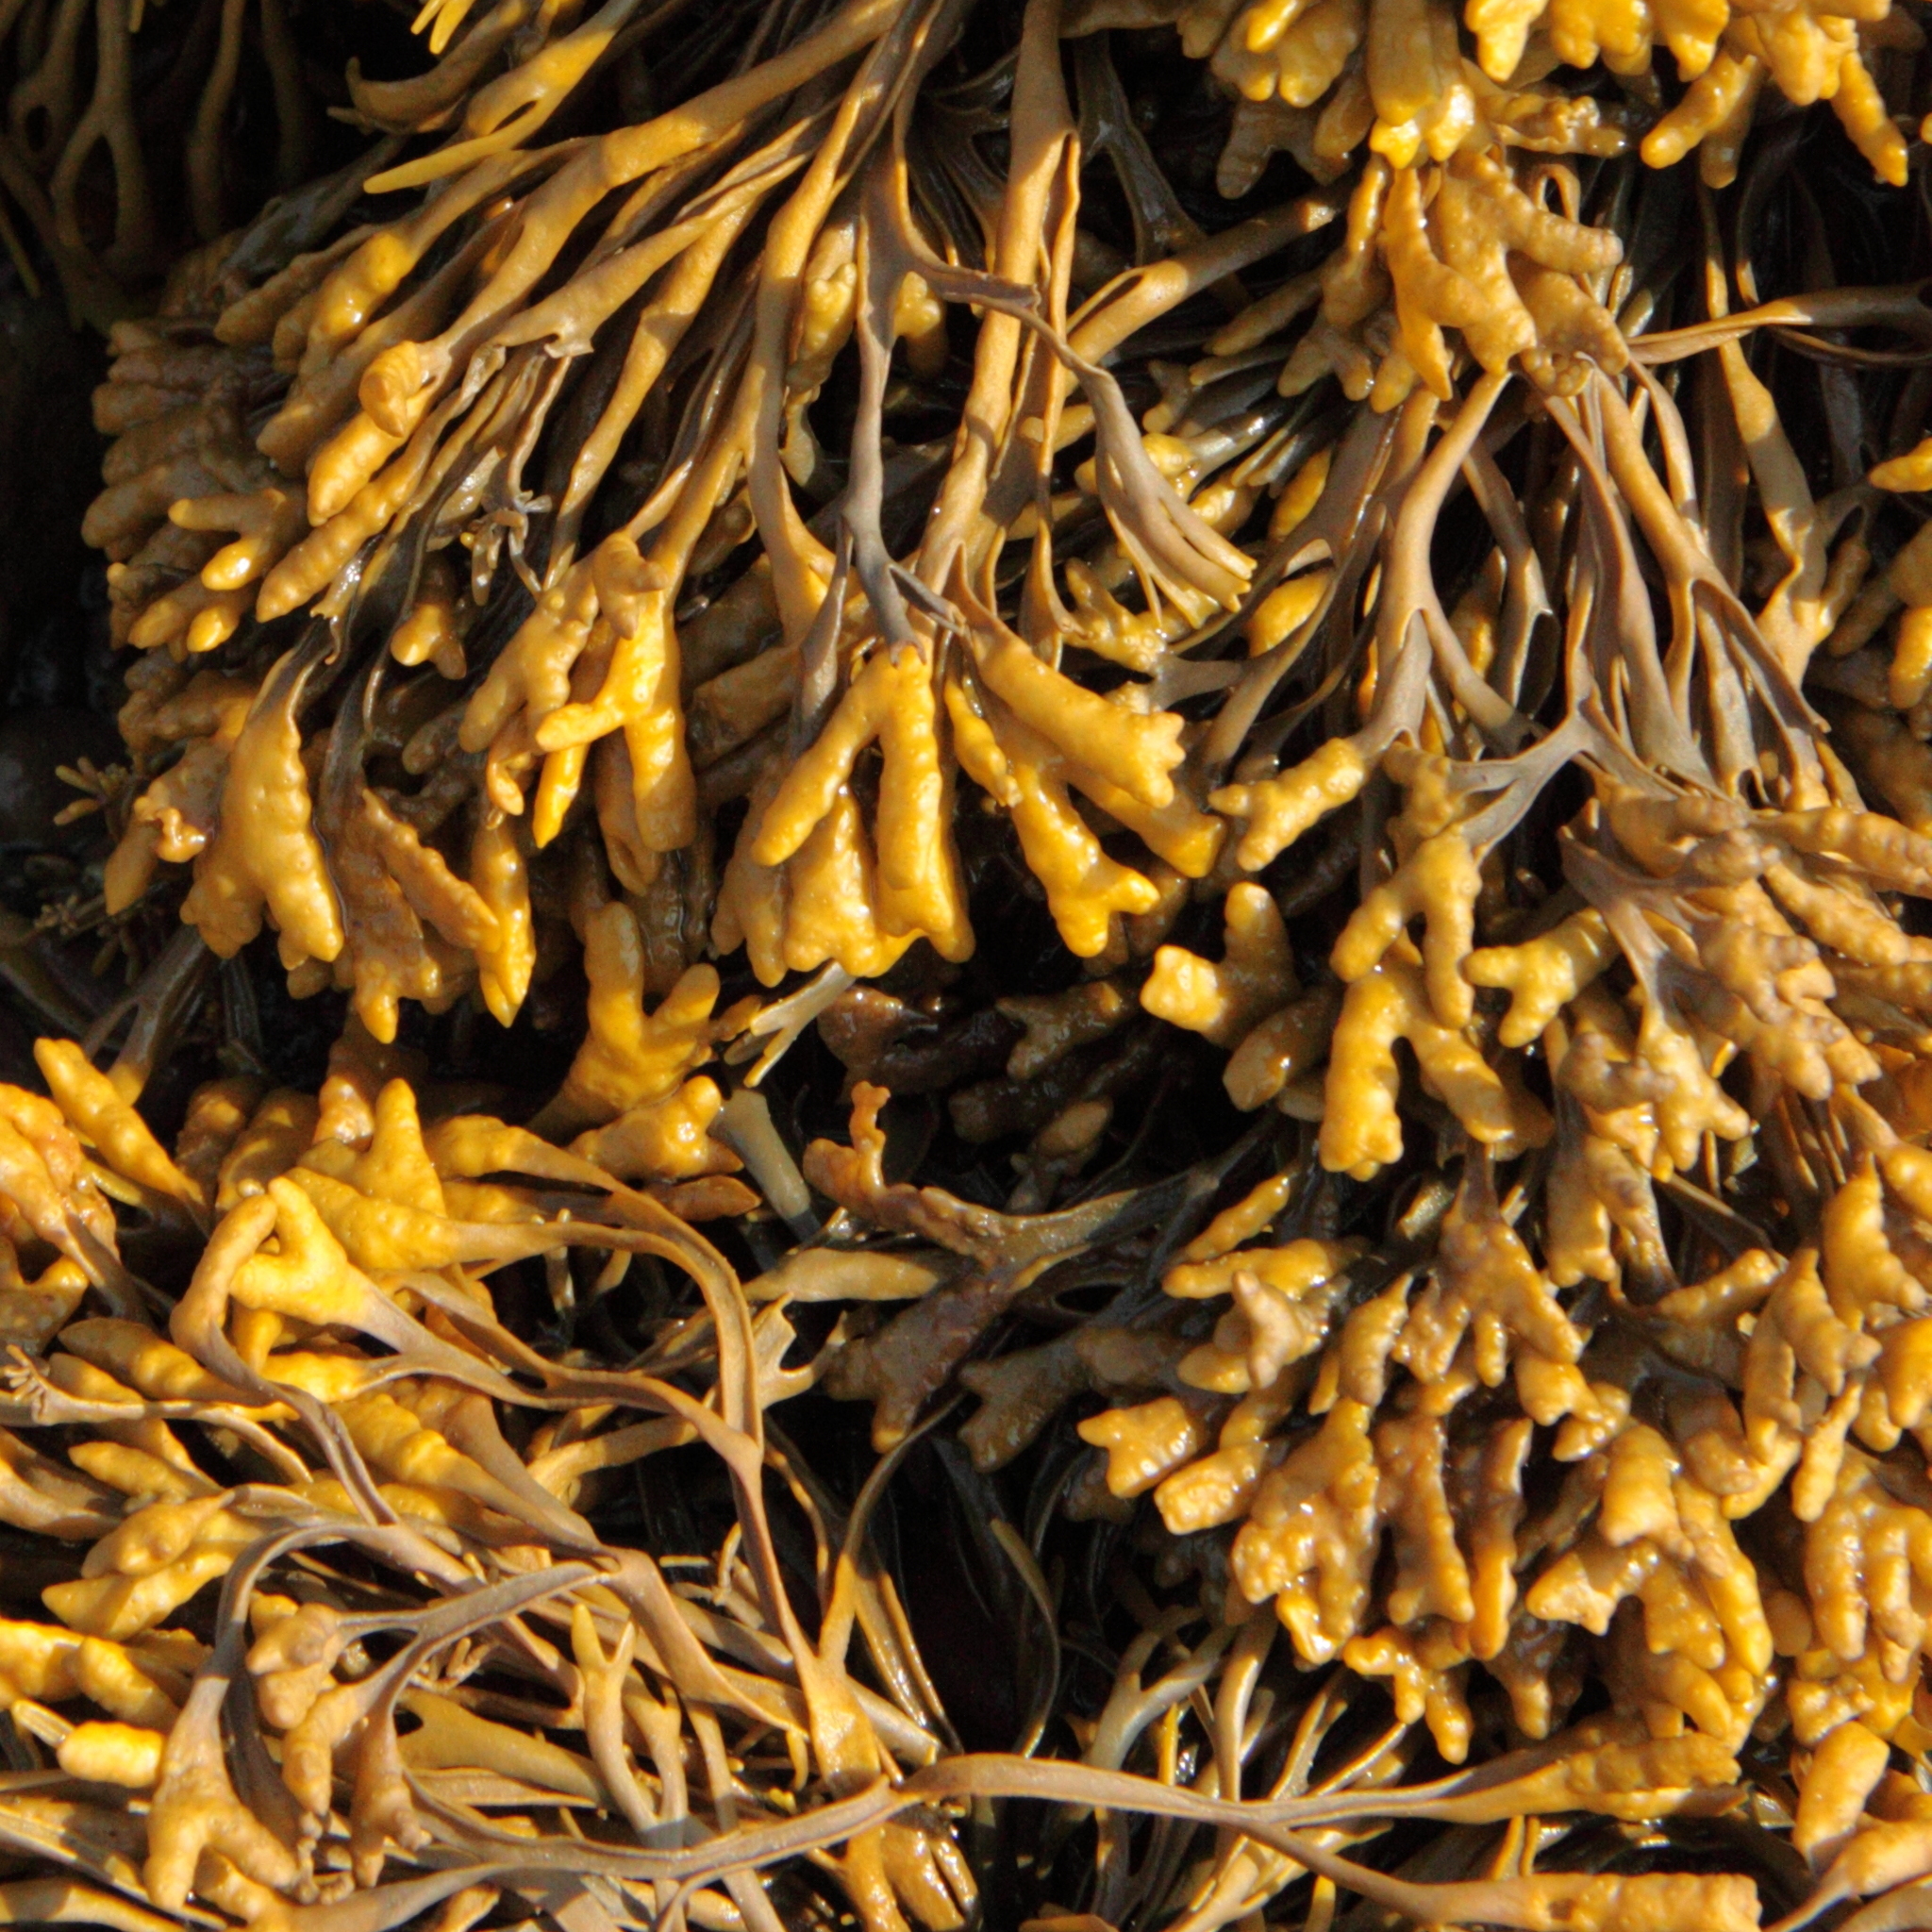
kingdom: Chromista
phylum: Ochrophyta
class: Phaeophyceae
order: Fucales
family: Fucaceae
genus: Pelvetia
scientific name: Pelvetia canaliculata
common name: Channelled wrack
